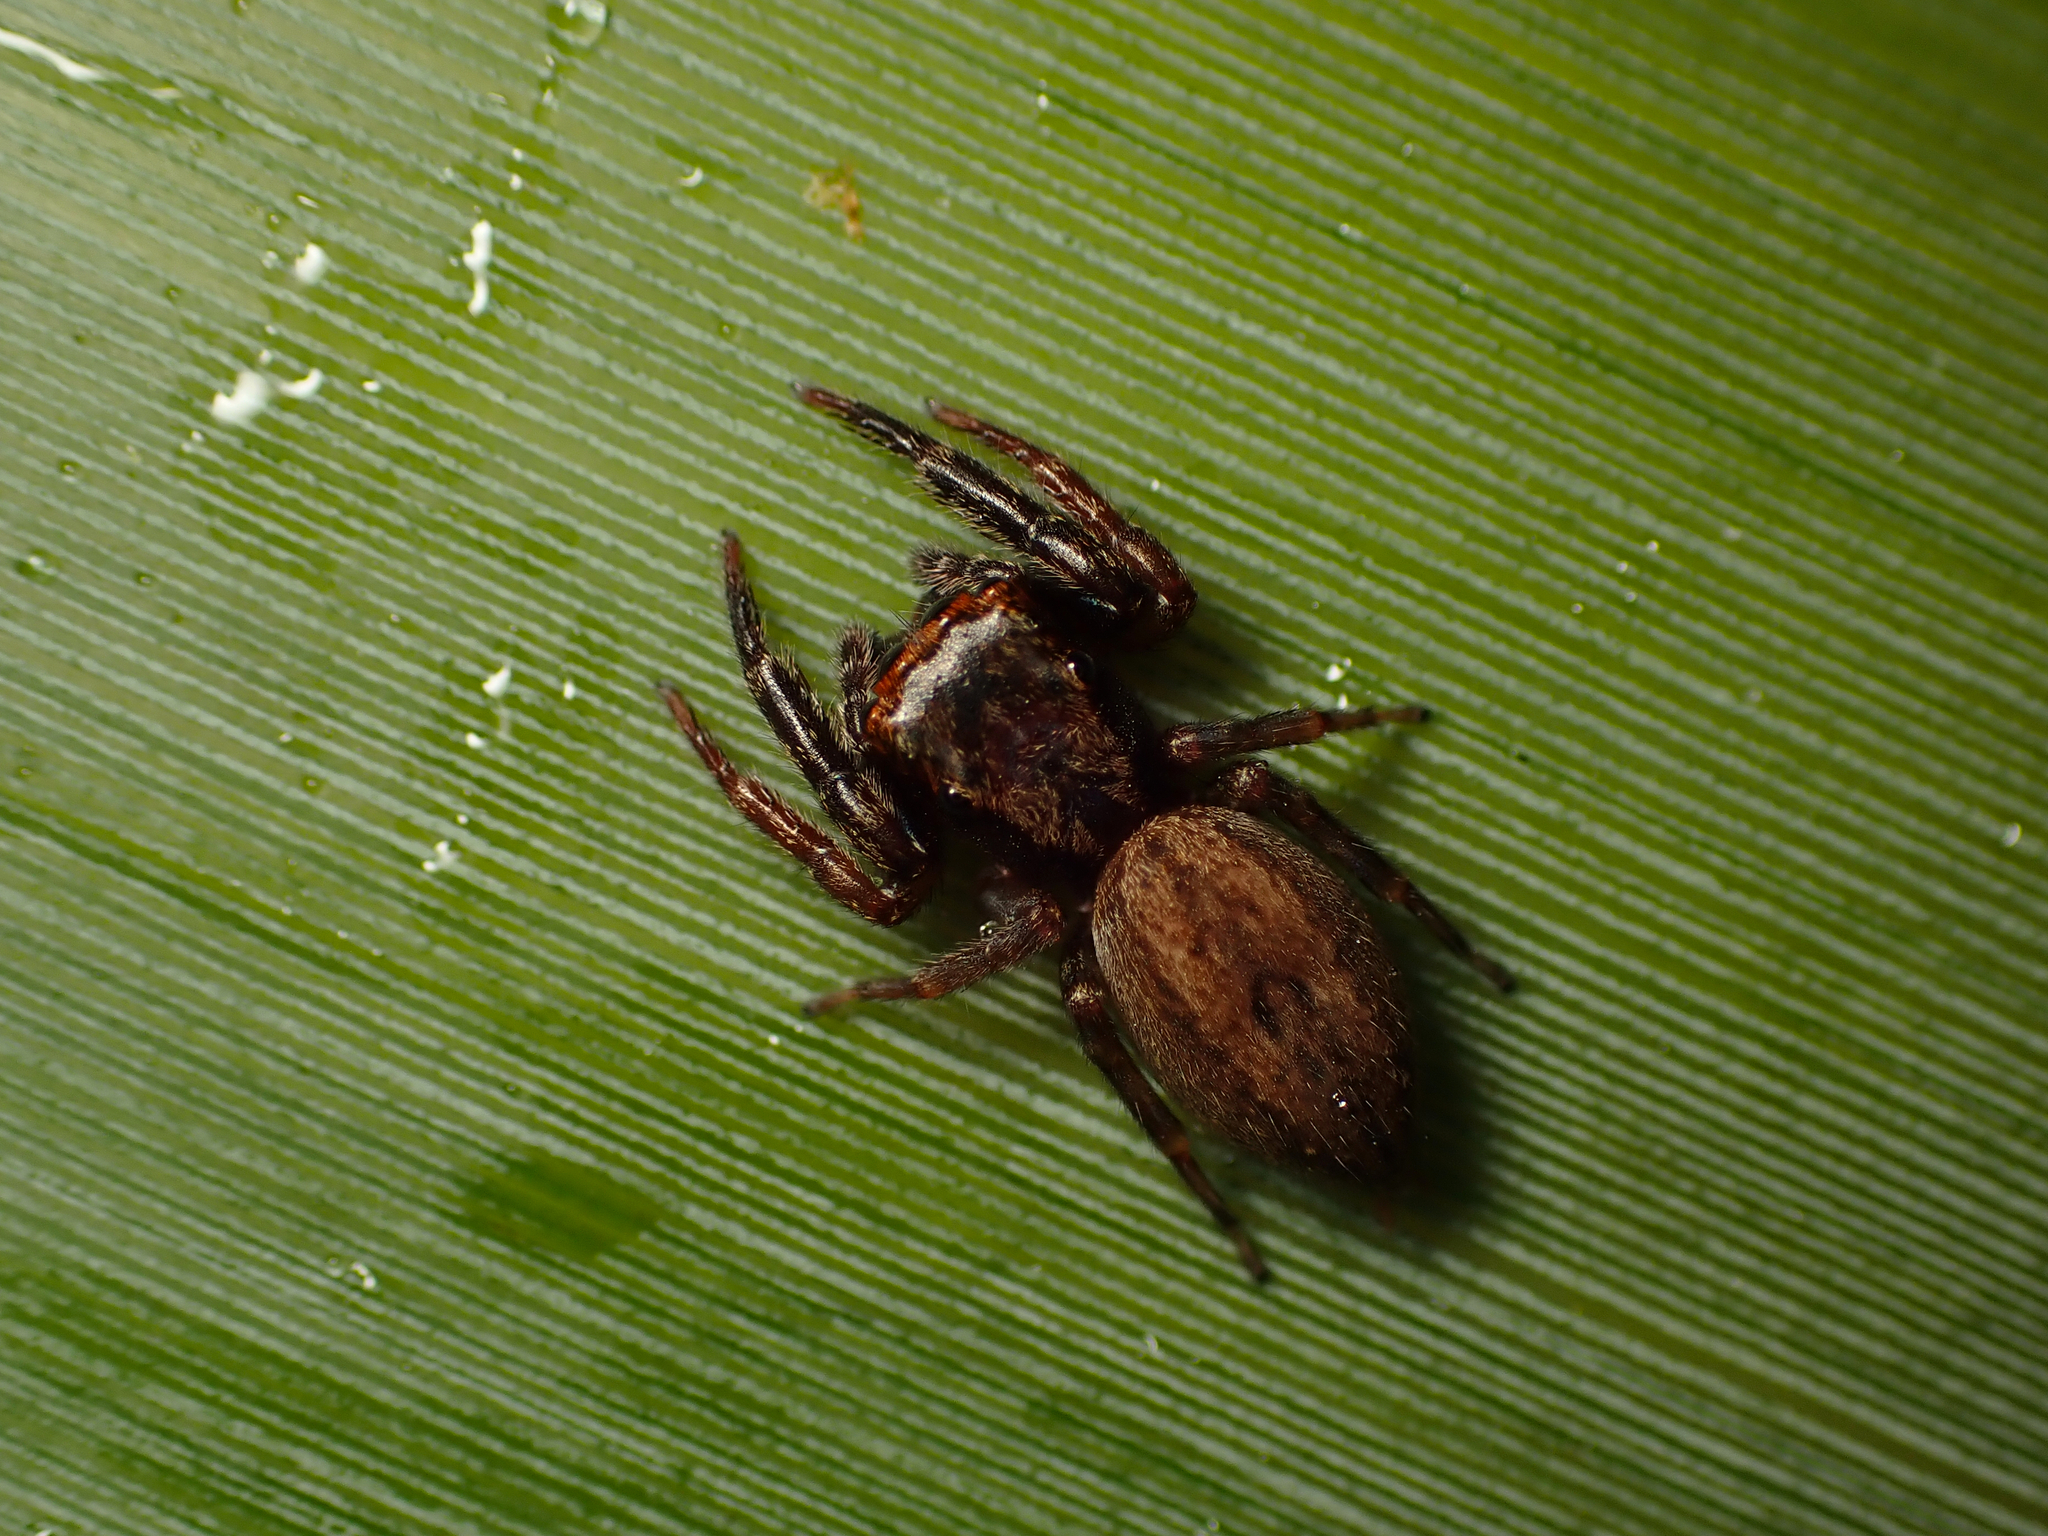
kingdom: Animalia
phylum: Arthropoda
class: Arachnida
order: Araneae
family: Salticidae
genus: Trite
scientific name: Trite auricoma
